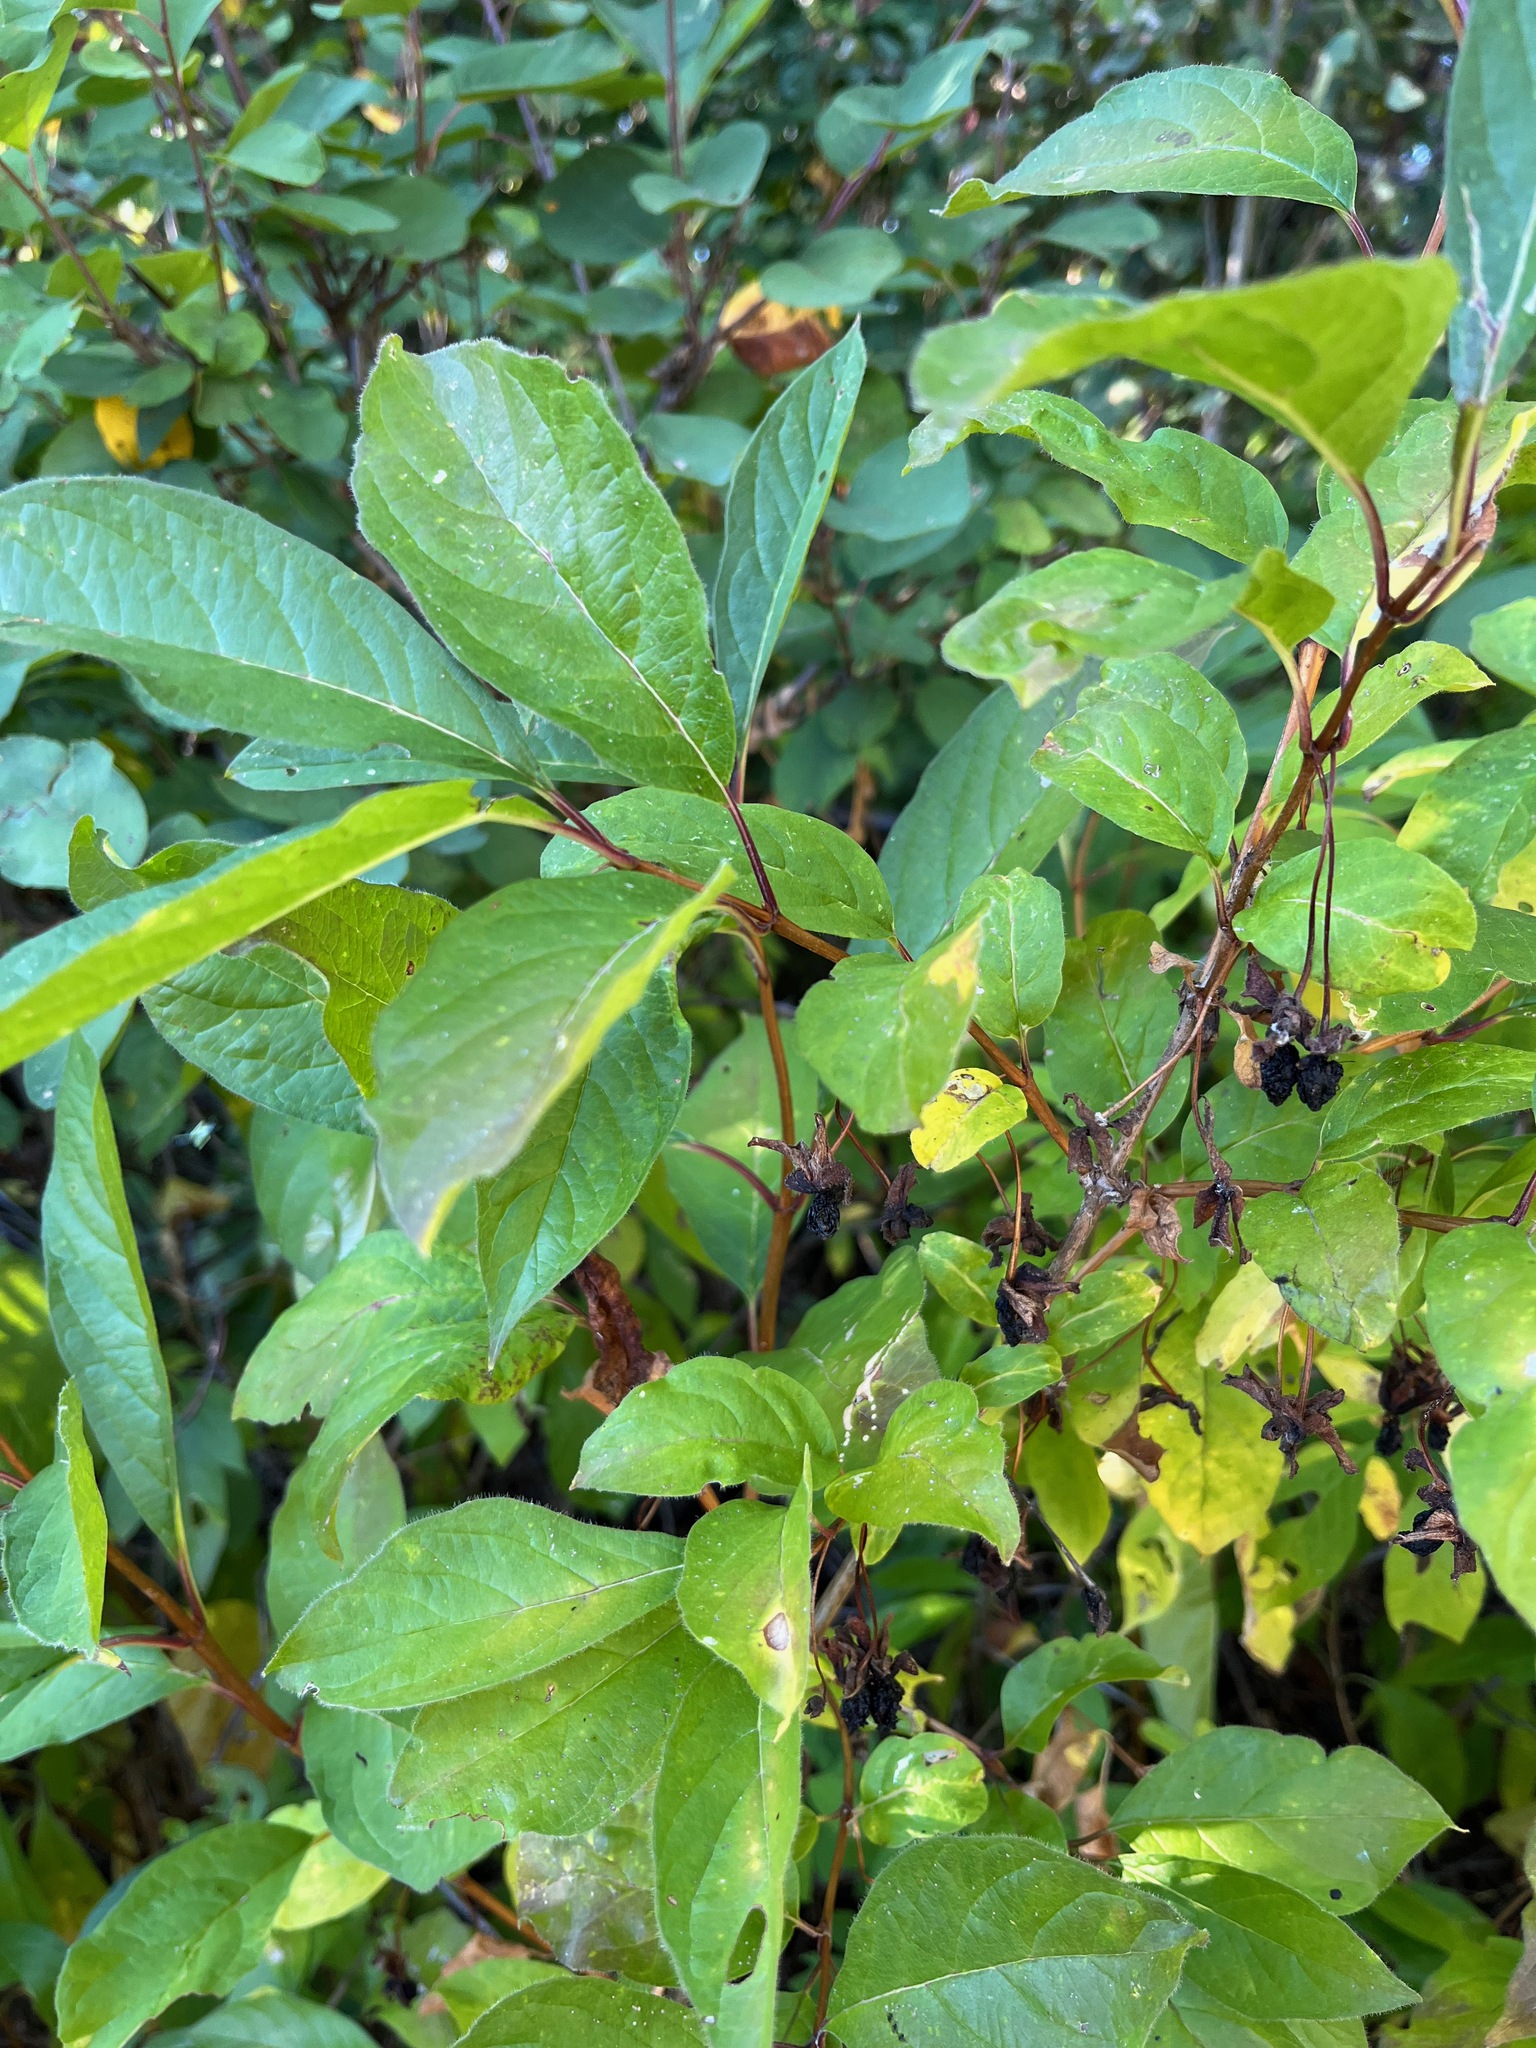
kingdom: Plantae
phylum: Tracheophyta
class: Magnoliopsida
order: Dipsacales
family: Caprifoliaceae
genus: Lonicera
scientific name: Lonicera involucrata
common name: Californian honeysuckle
